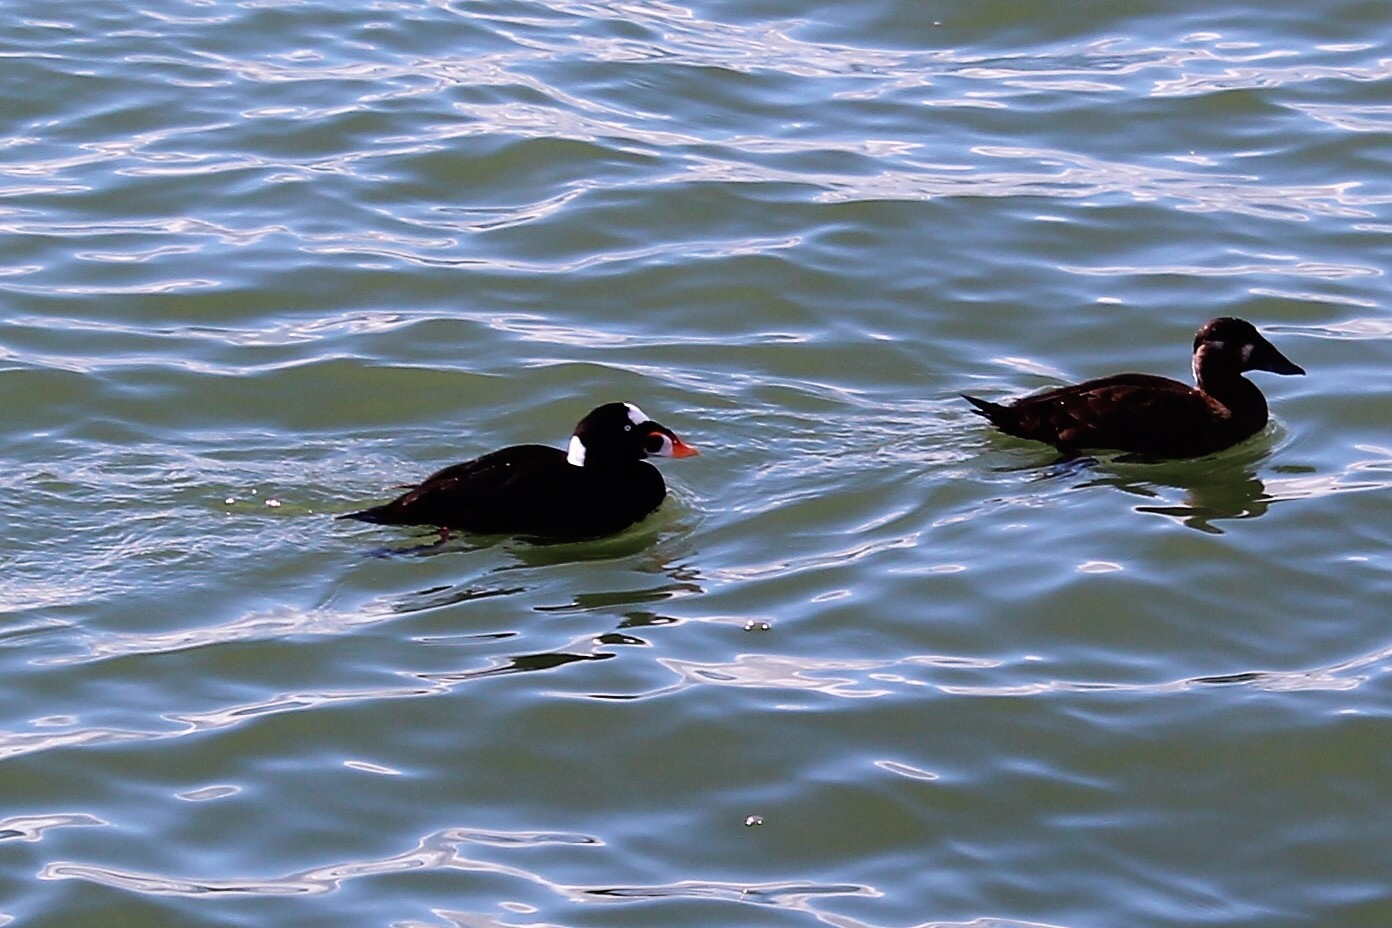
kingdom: Animalia
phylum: Chordata
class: Aves
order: Anseriformes
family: Anatidae
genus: Melanitta
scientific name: Melanitta perspicillata
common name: Surf scoter
